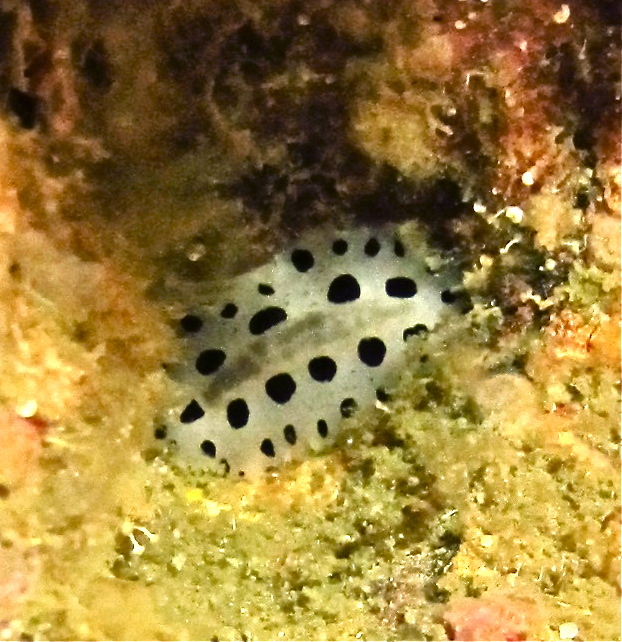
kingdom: Animalia
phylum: Mollusca
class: Gastropoda
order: Nudibranchia
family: Phyllidiidae
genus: Phyllidiopsis
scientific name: Phyllidiopsis loricata
